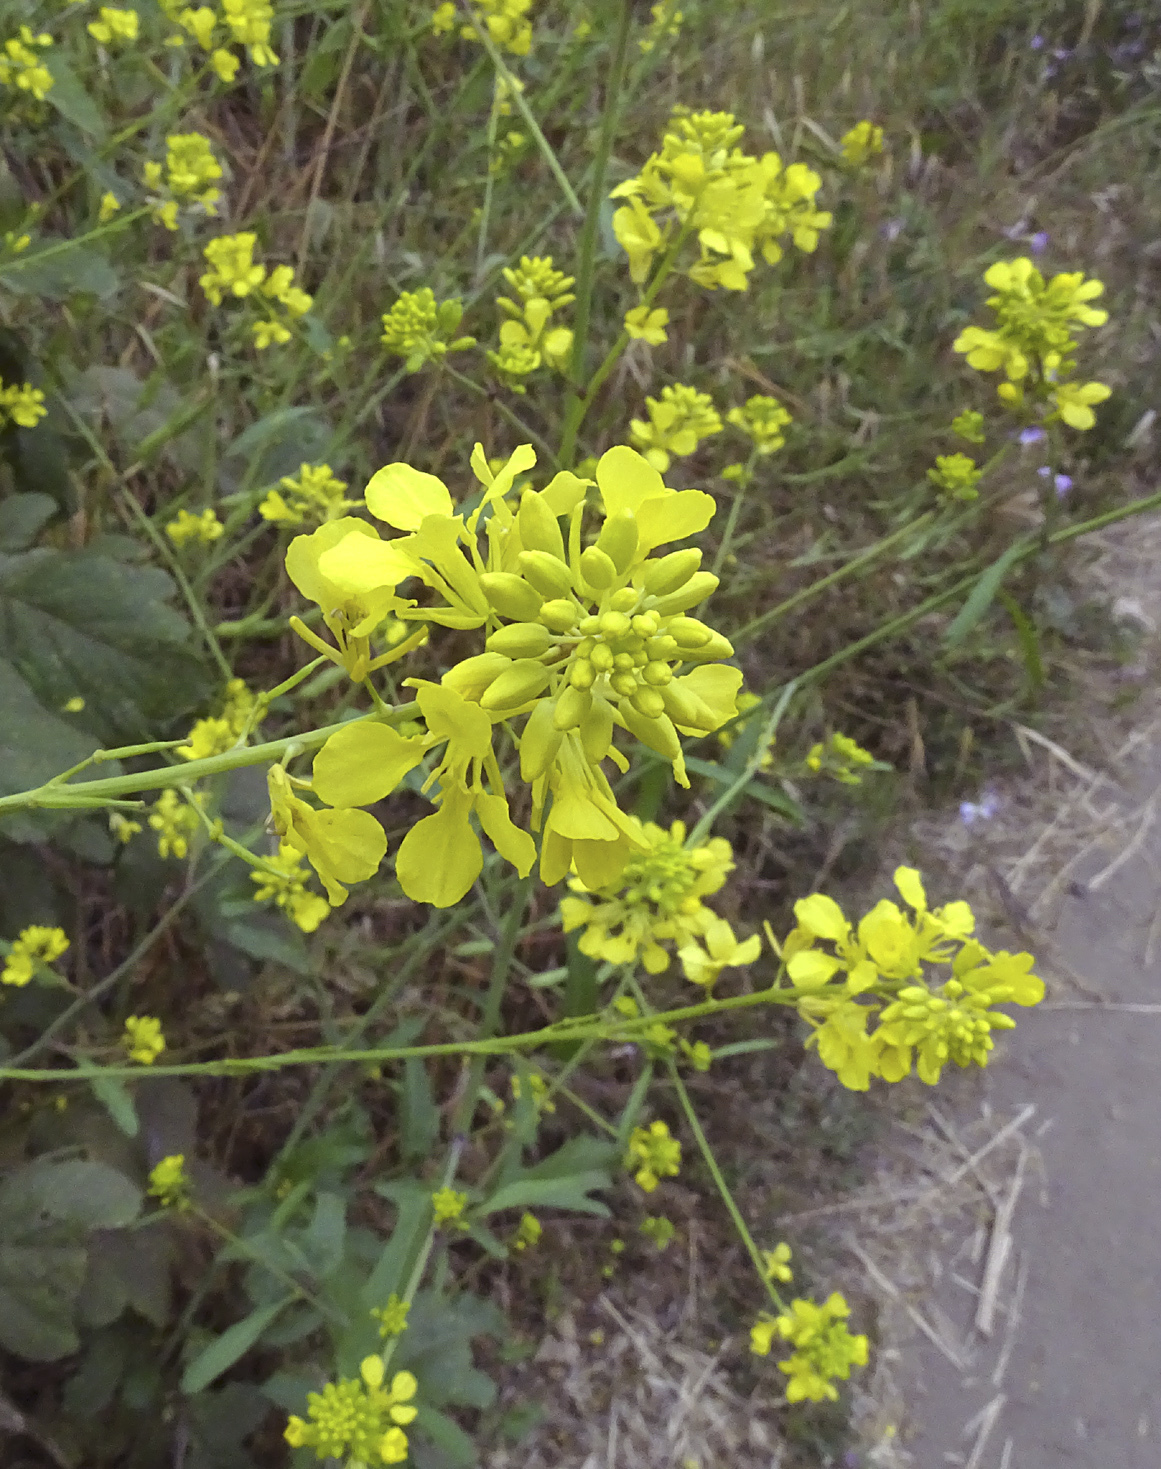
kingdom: Plantae
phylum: Tracheophyta
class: Magnoliopsida
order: Brassicales
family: Brassicaceae
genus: Brassica
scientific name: Brassica nigra
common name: Black mustard
